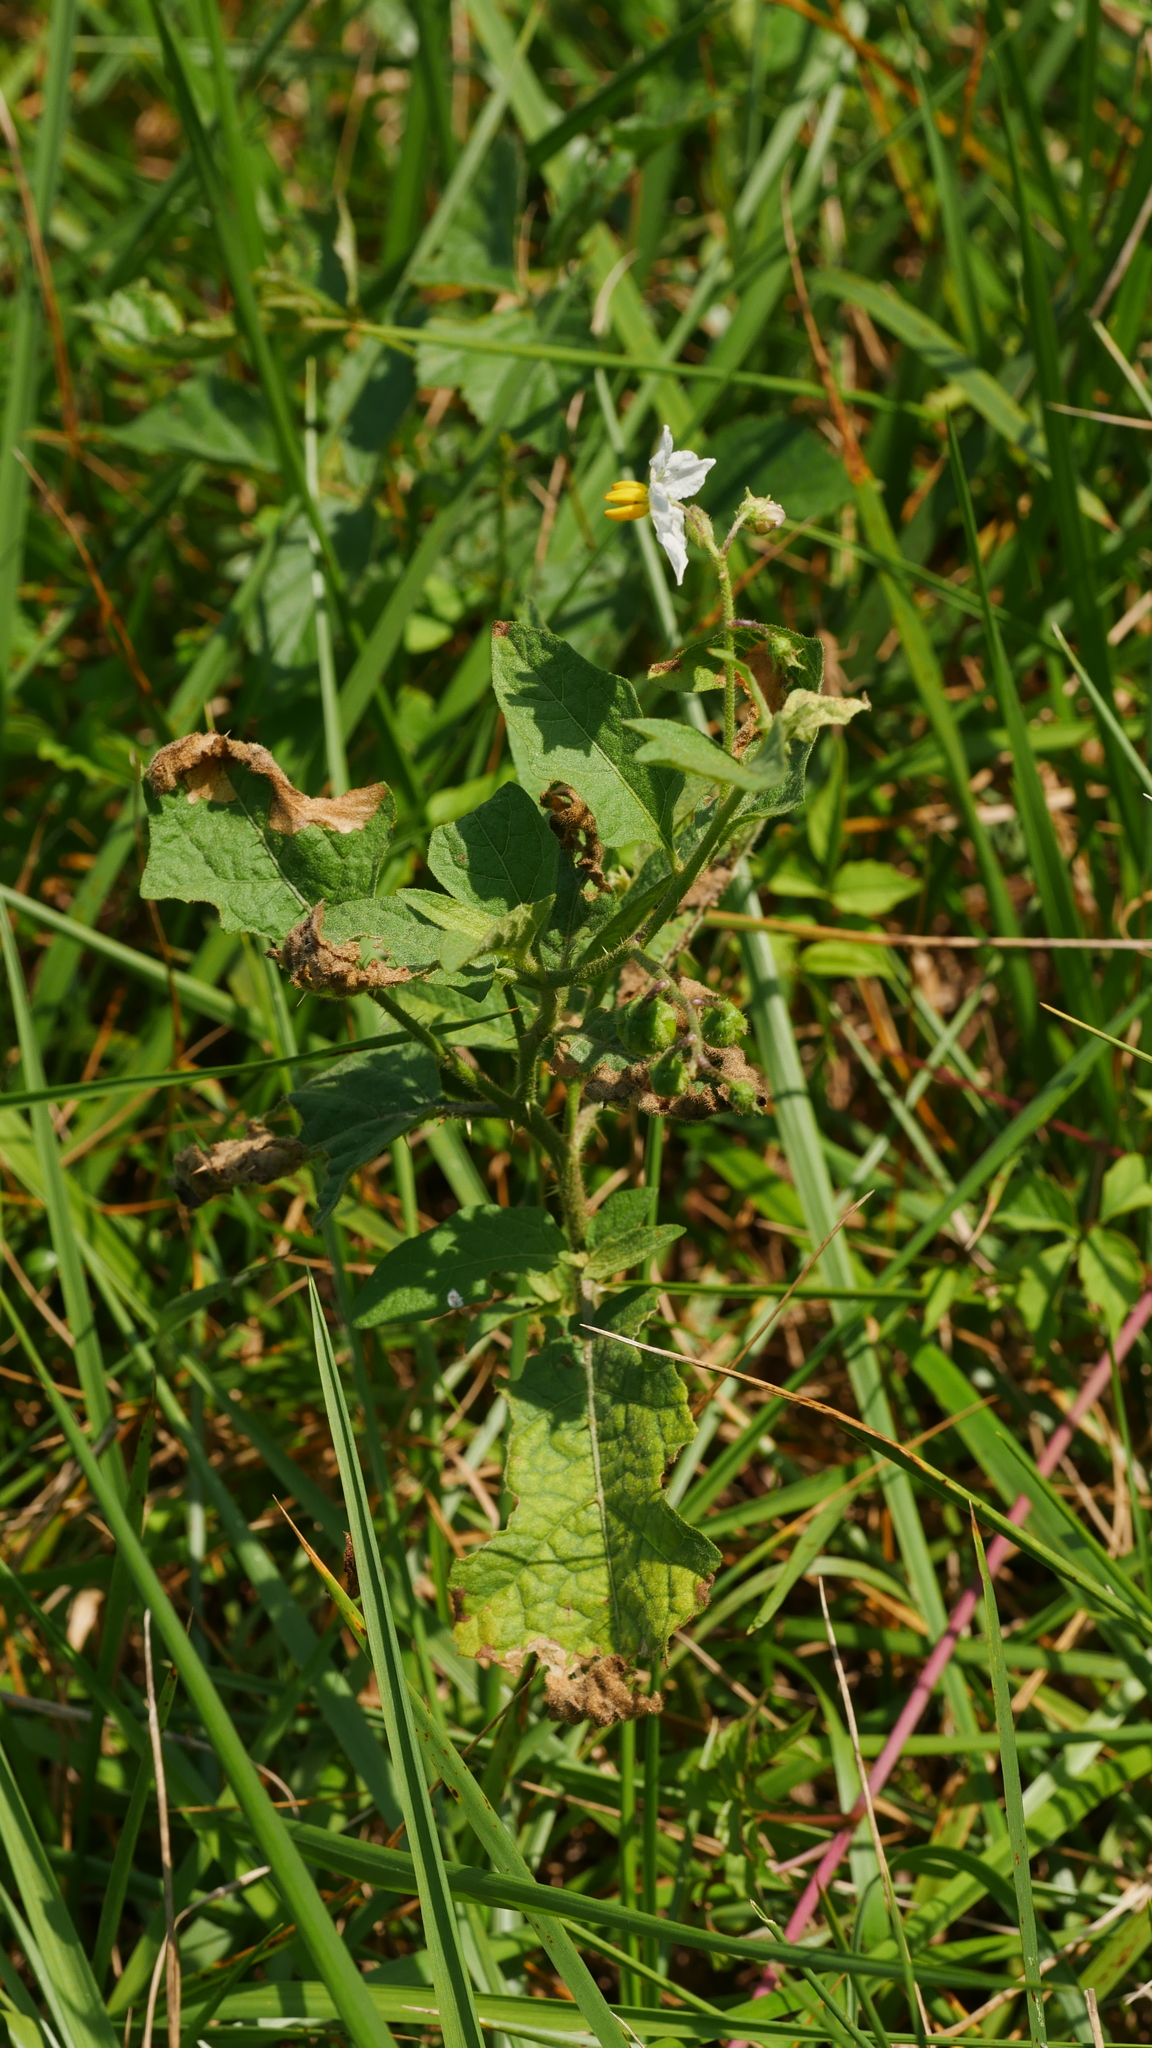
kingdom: Plantae
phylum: Tracheophyta
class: Magnoliopsida
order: Solanales
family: Solanaceae
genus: Solanum
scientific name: Solanum carolinense
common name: Horse-nettle
